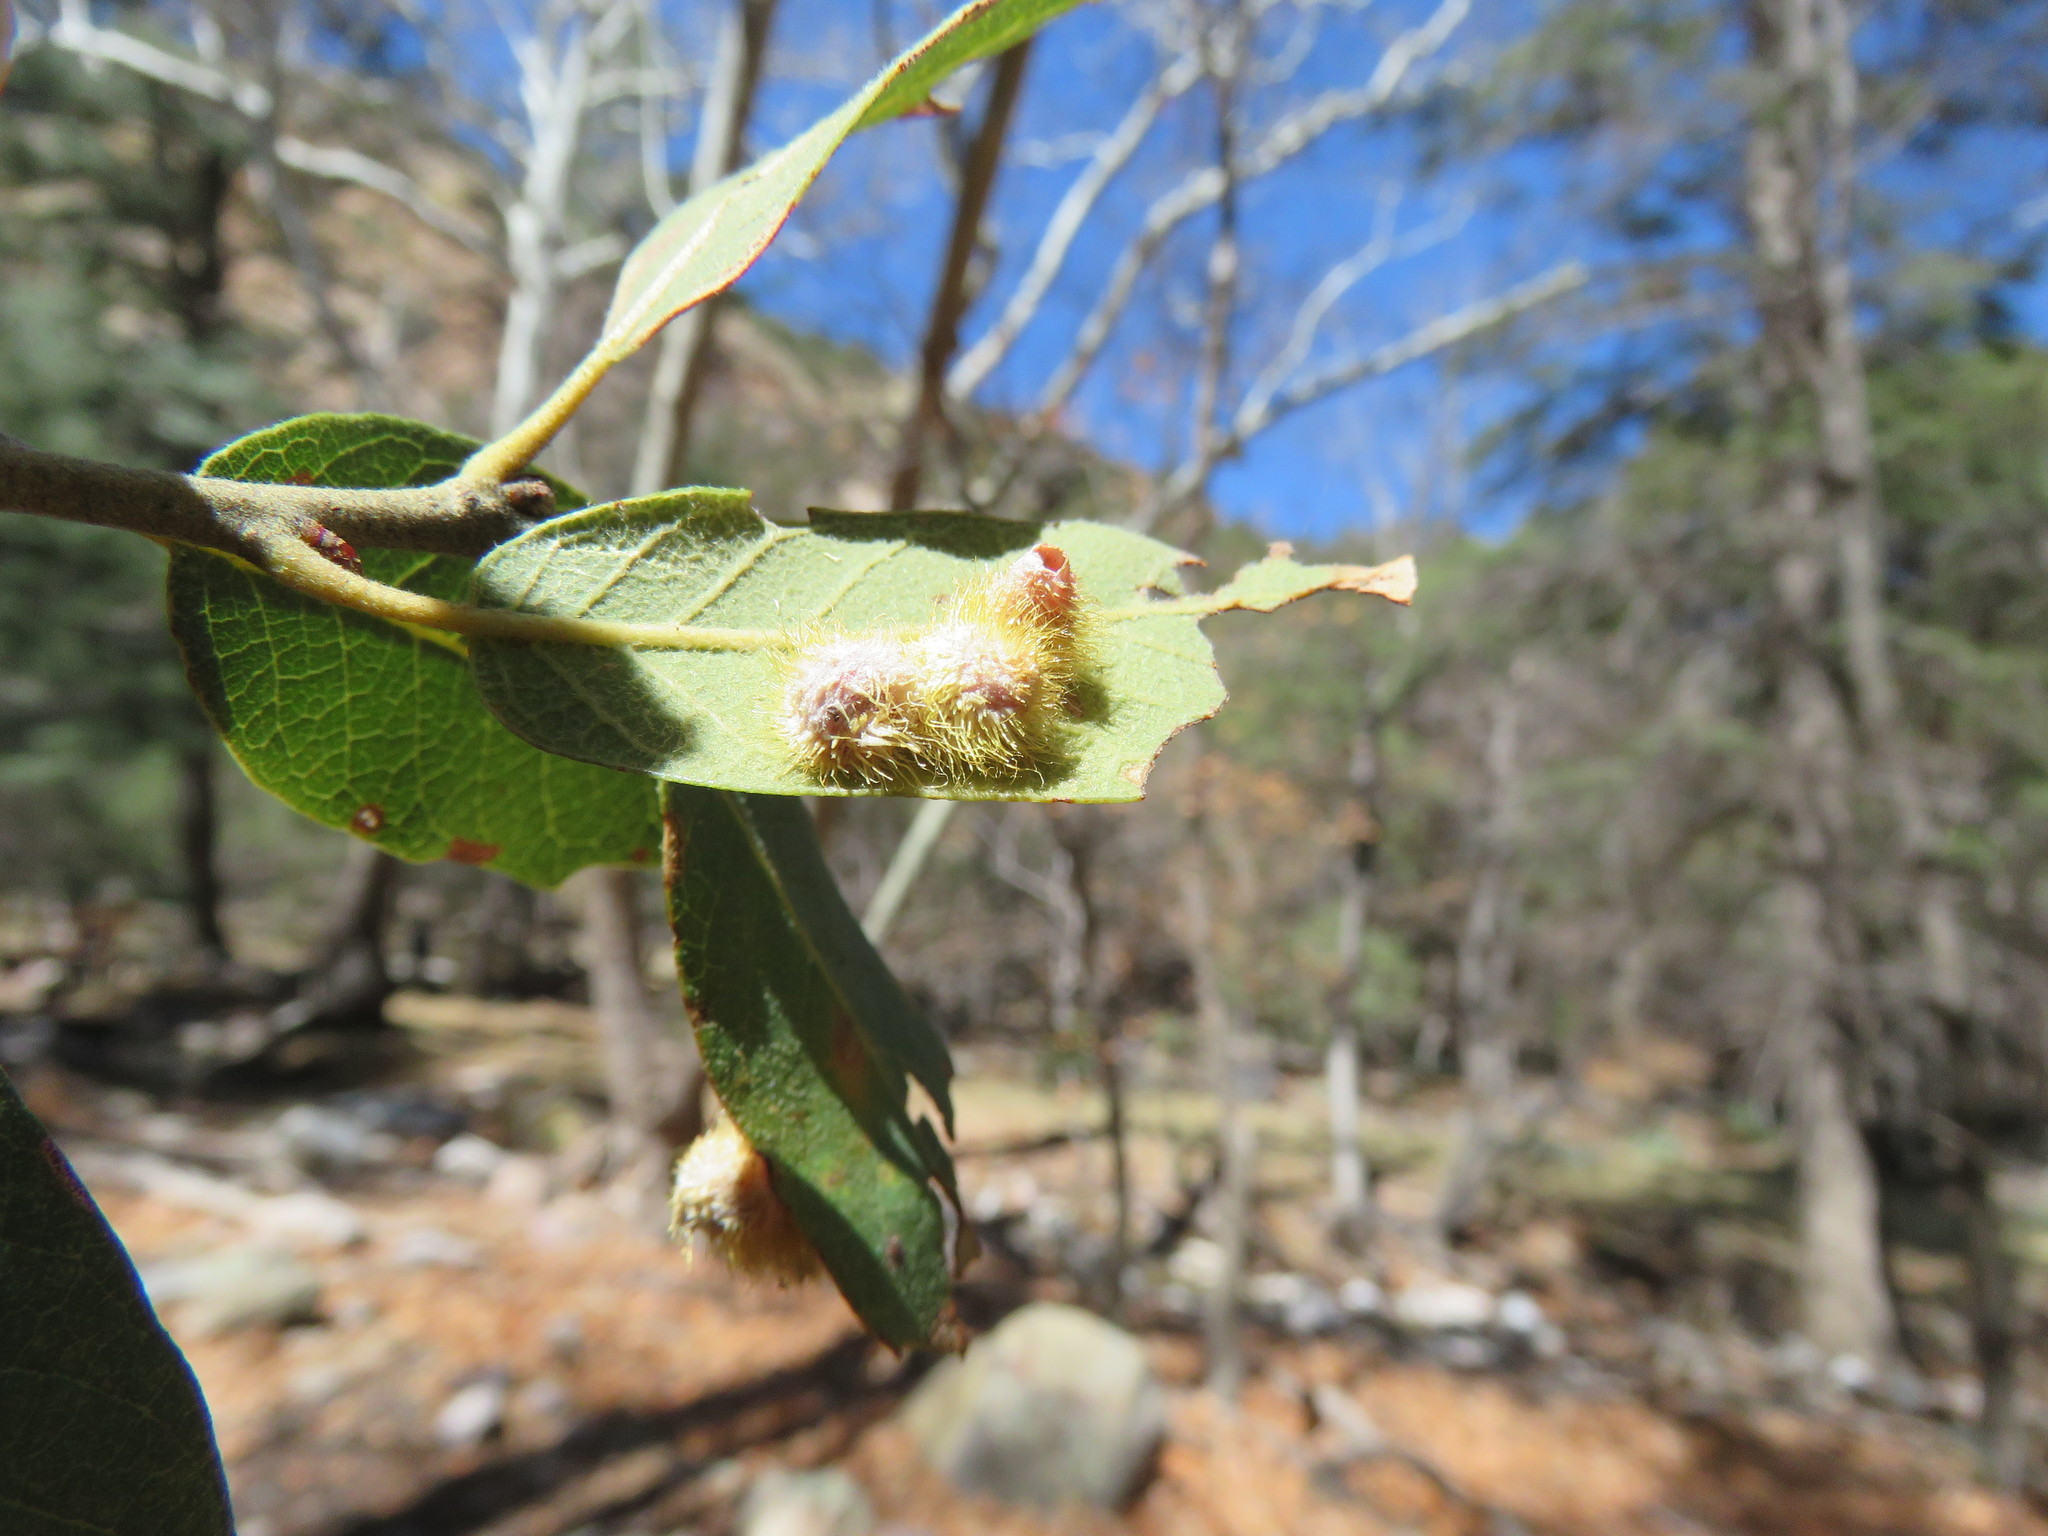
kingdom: Animalia
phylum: Arthropoda
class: Insecta
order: Hymenoptera
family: Cynipidae
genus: Cynips
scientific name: Cynips
